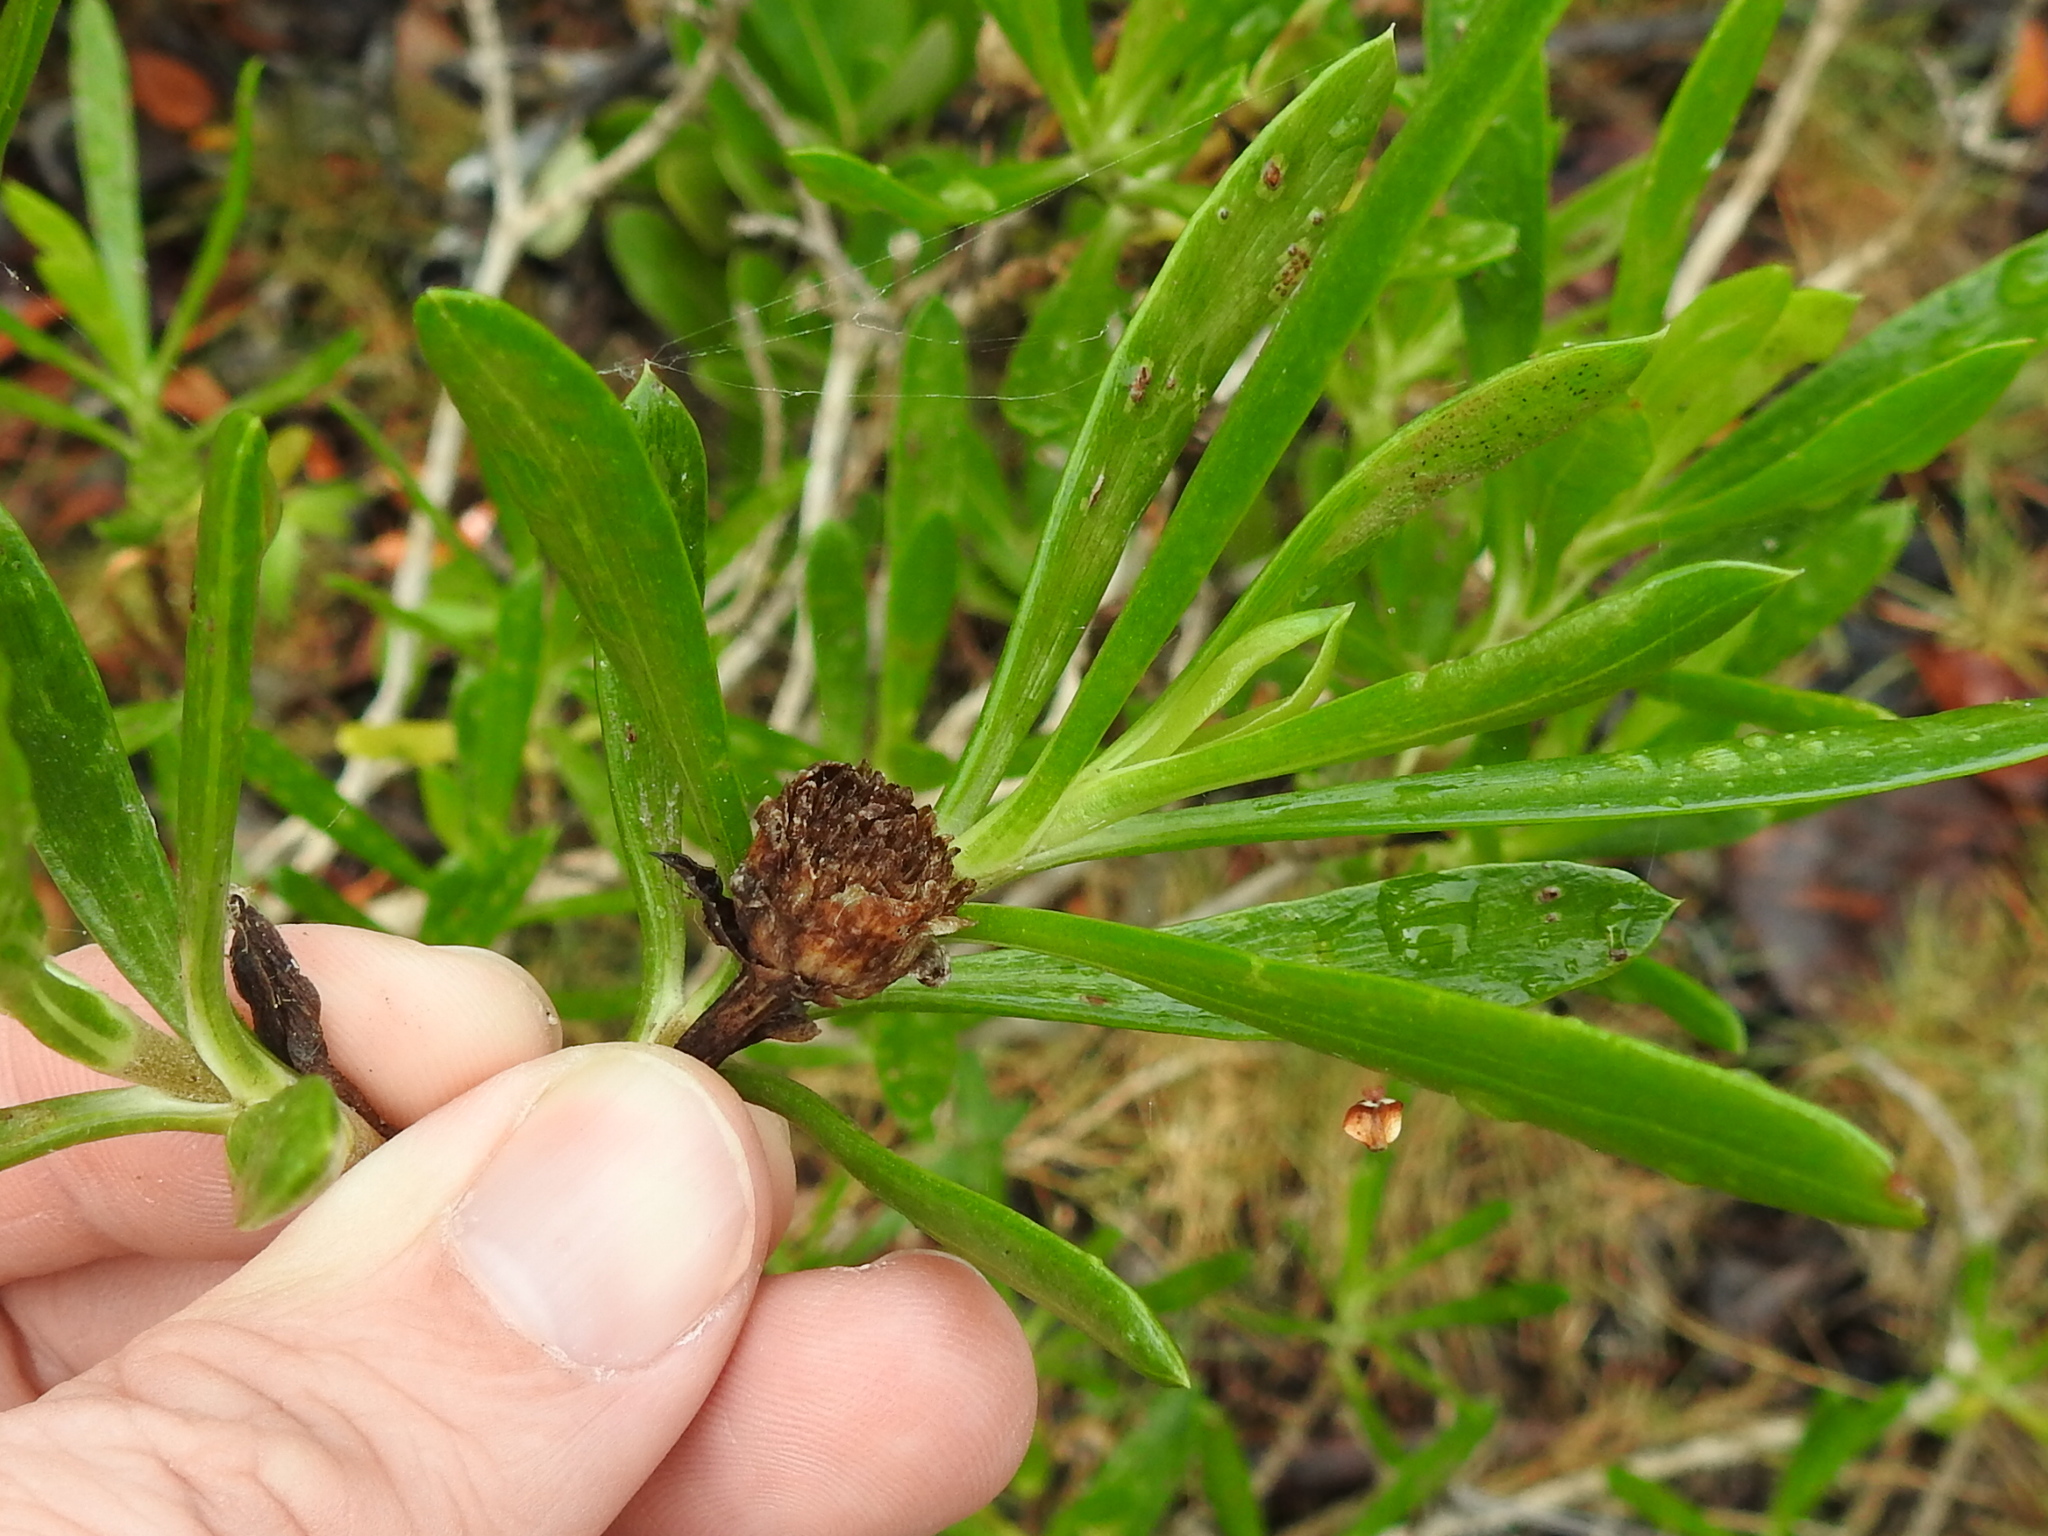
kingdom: Plantae
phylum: Tracheophyta
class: Magnoliopsida
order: Asterales
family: Asteraceae
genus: Borrichia
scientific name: Borrichia arborescens
